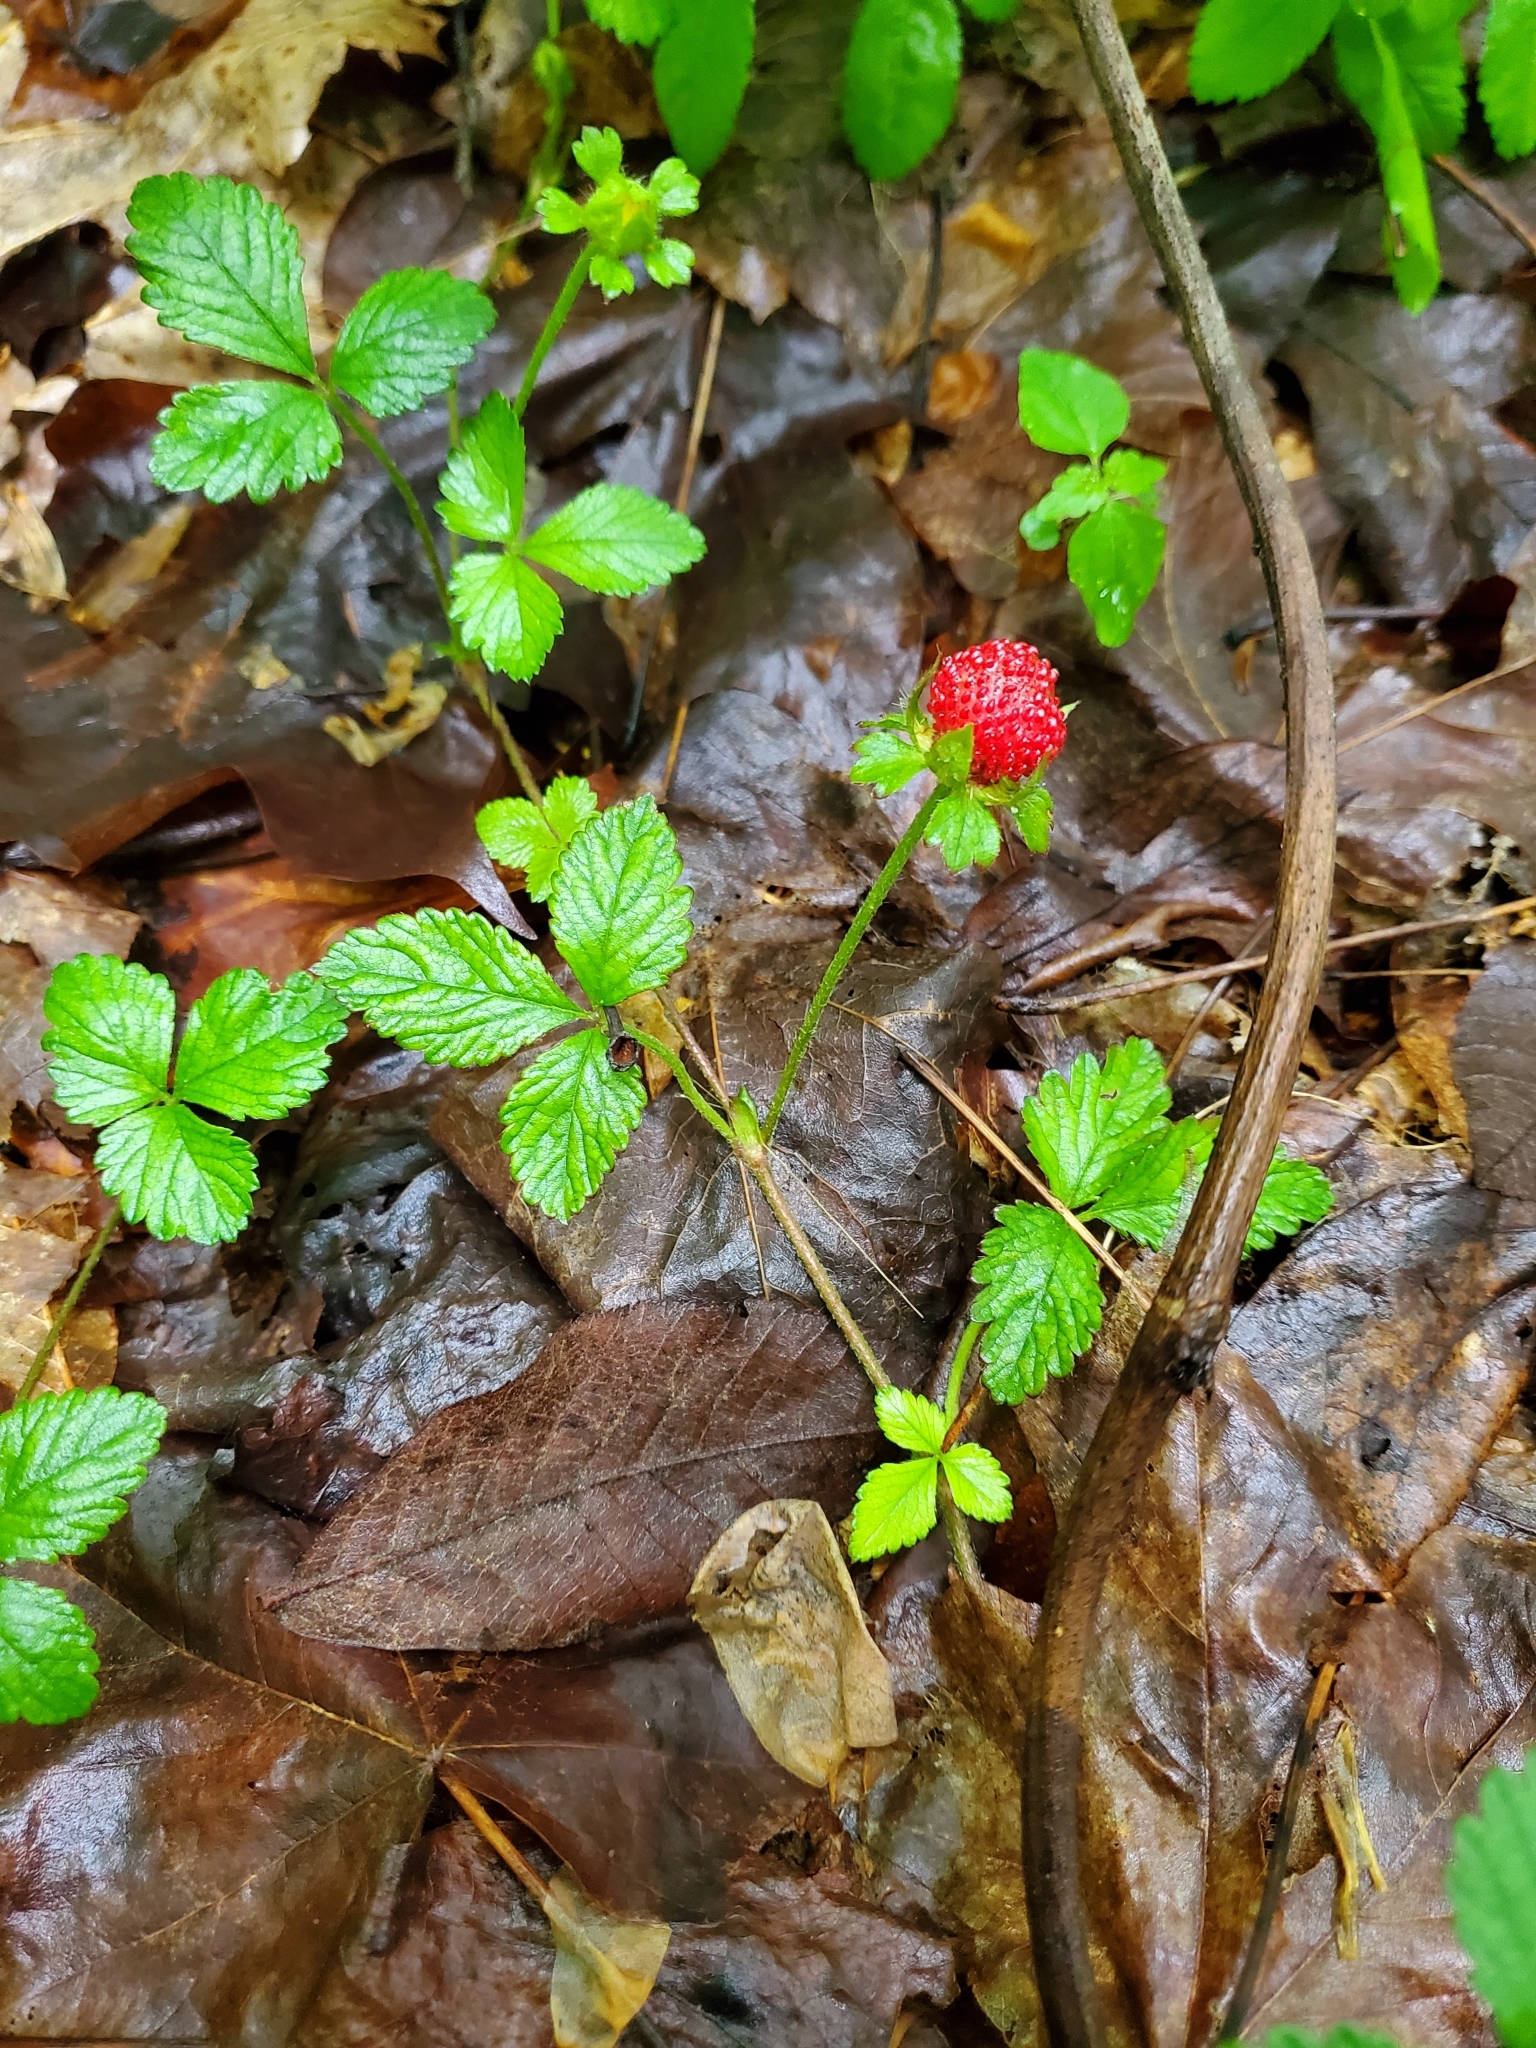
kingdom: Plantae
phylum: Tracheophyta
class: Magnoliopsida
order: Rosales
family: Rosaceae
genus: Potentilla
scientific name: Potentilla indica
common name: Yellow-flowered strawberry
